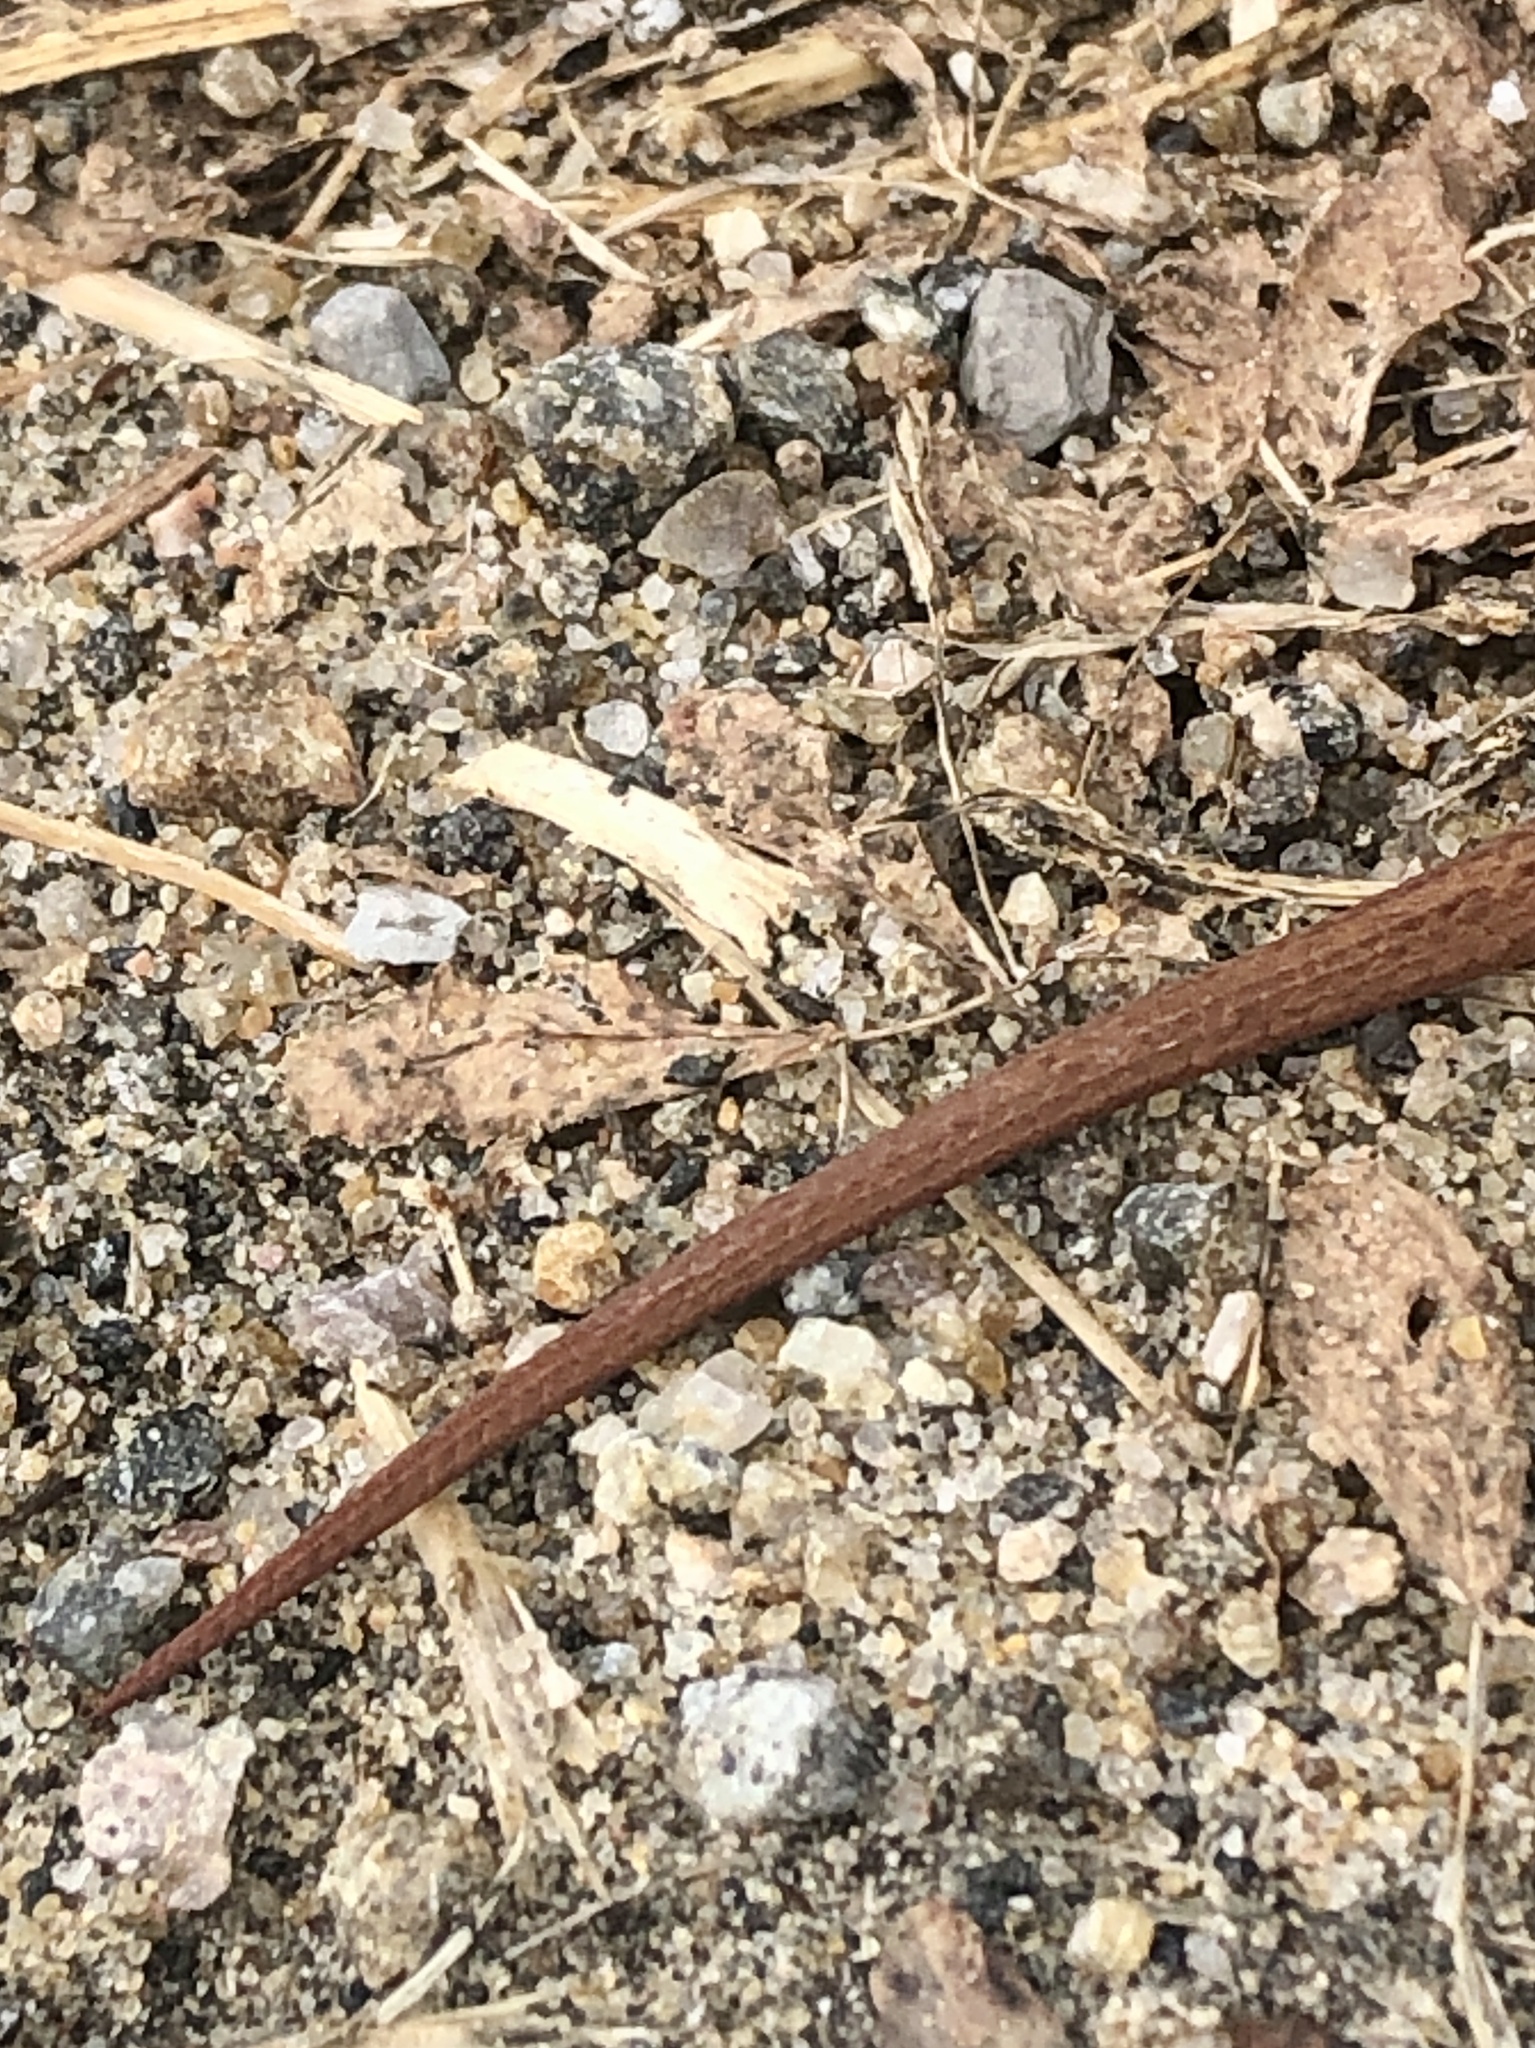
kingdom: Animalia
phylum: Chordata
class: Squamata
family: Colubridae
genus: Storeria
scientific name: Storeria occipitomaculata
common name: Redbelly snake
